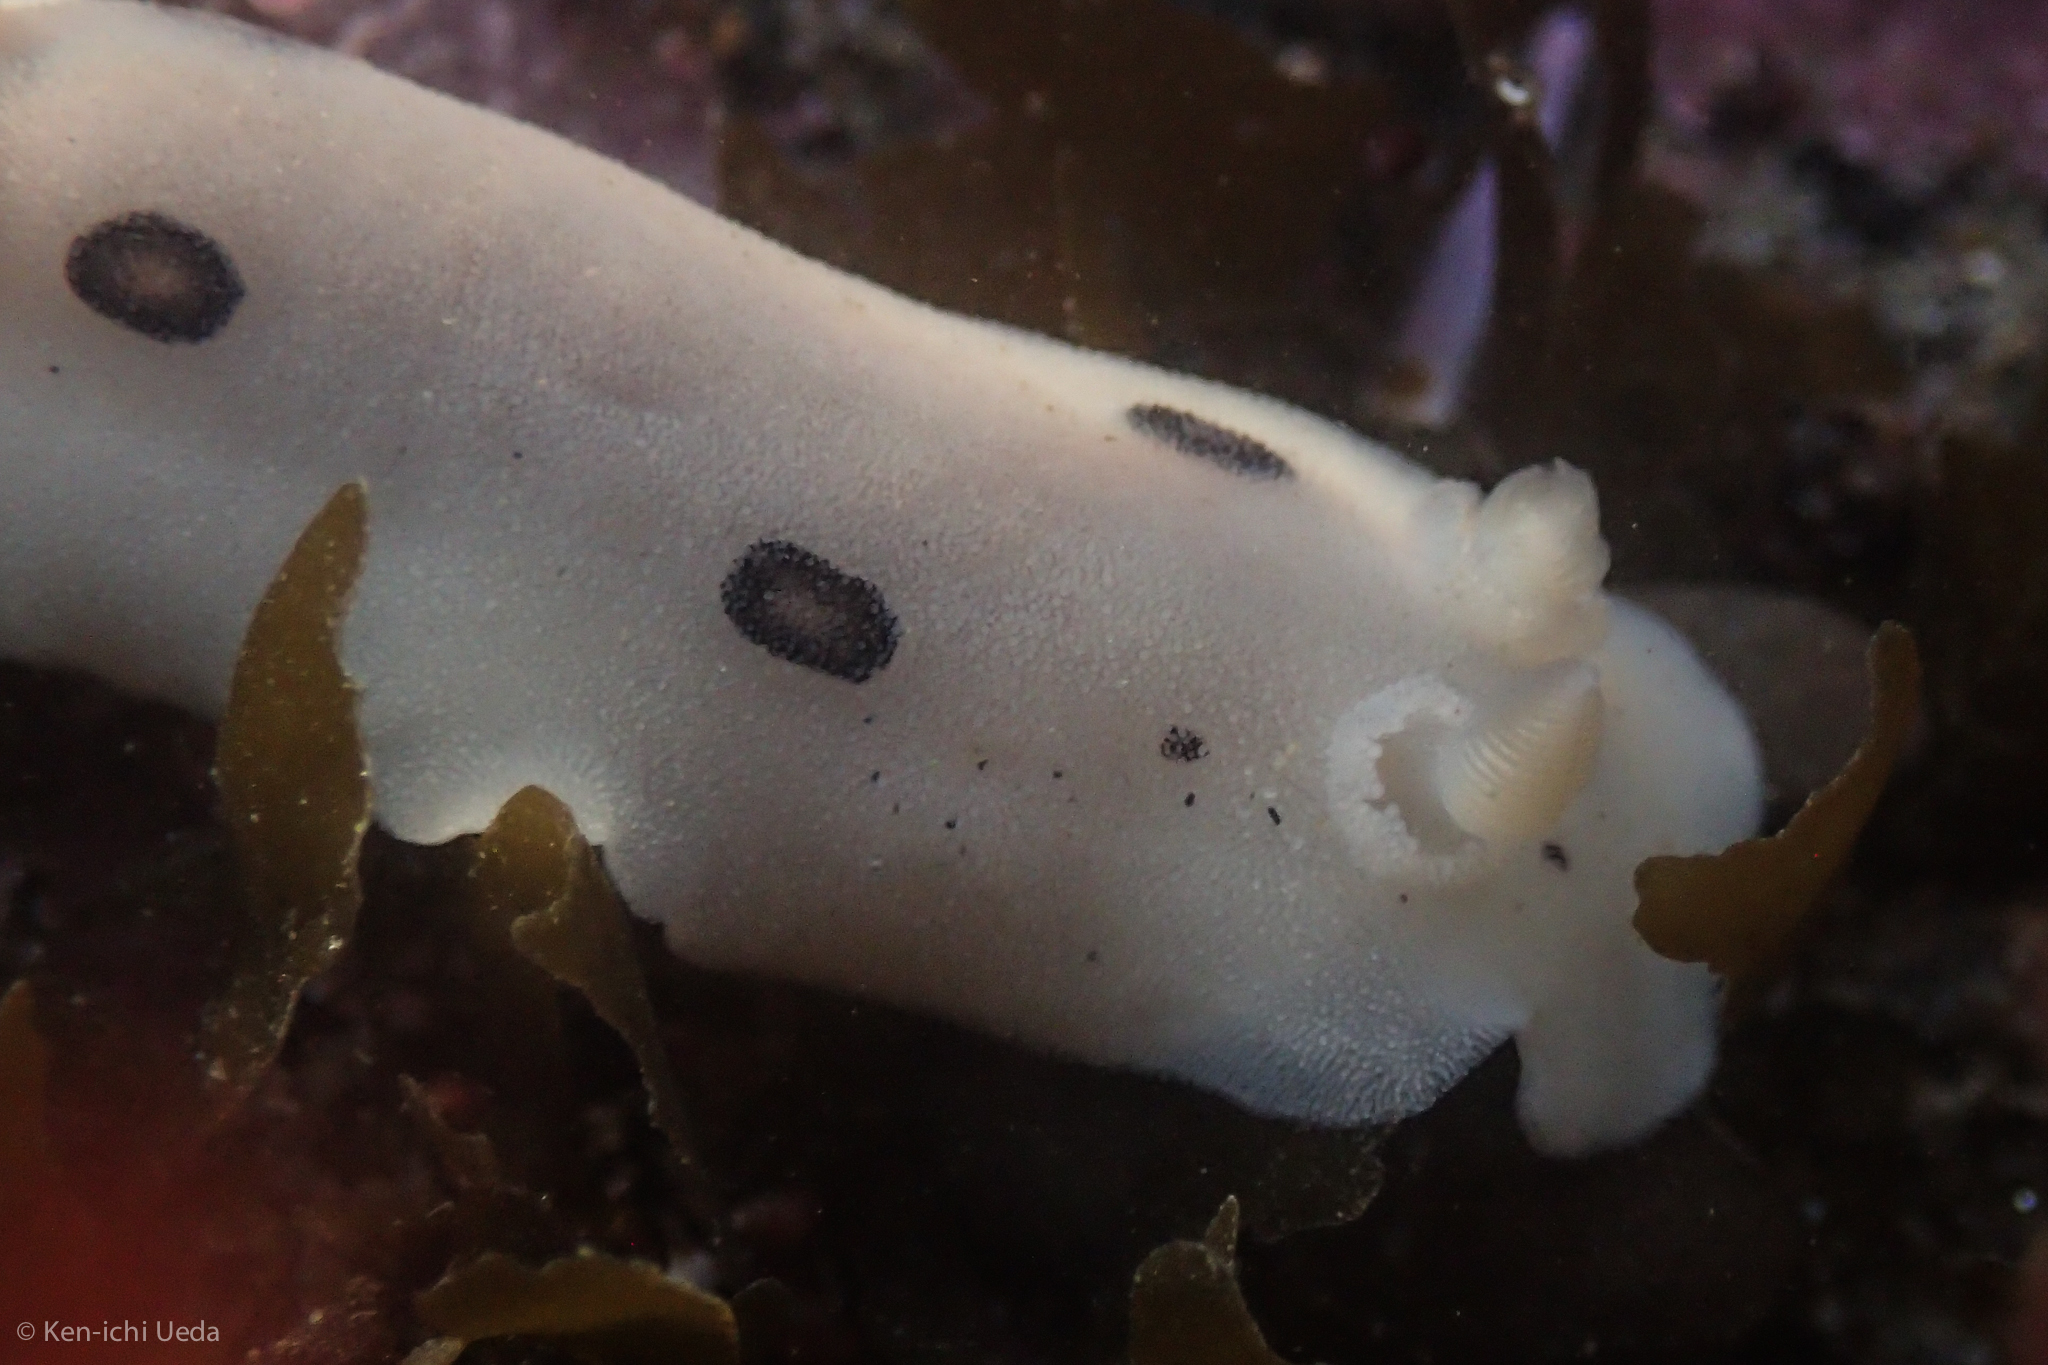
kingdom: Animalia
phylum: Mollusca
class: Gastropoda
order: Nudibranchia
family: Discodorididae
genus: Diaulula
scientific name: Diaulula sandiegensis
